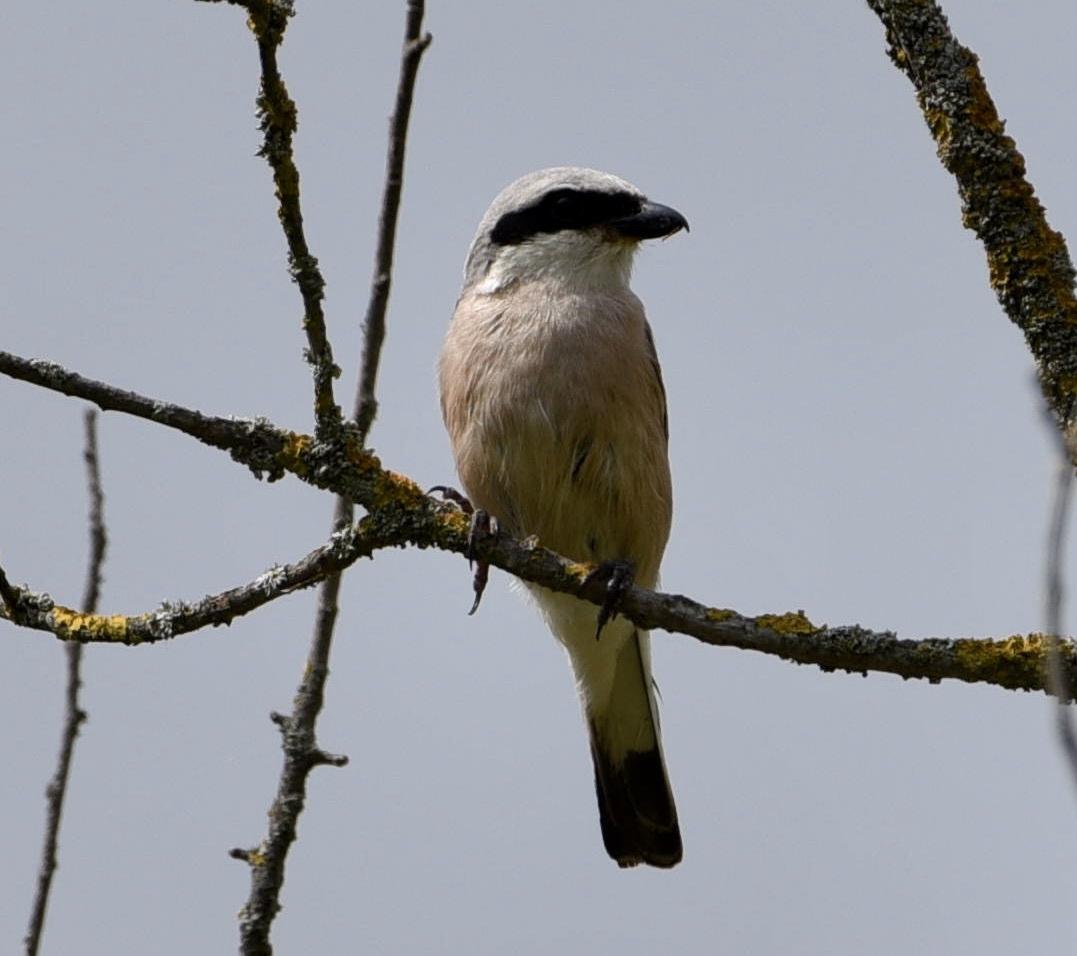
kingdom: Animalia
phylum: Chordata
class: Aves
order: Passeriformes
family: Laniidae
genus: Lanius
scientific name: Lanius collurio
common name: Red-backed shrike
